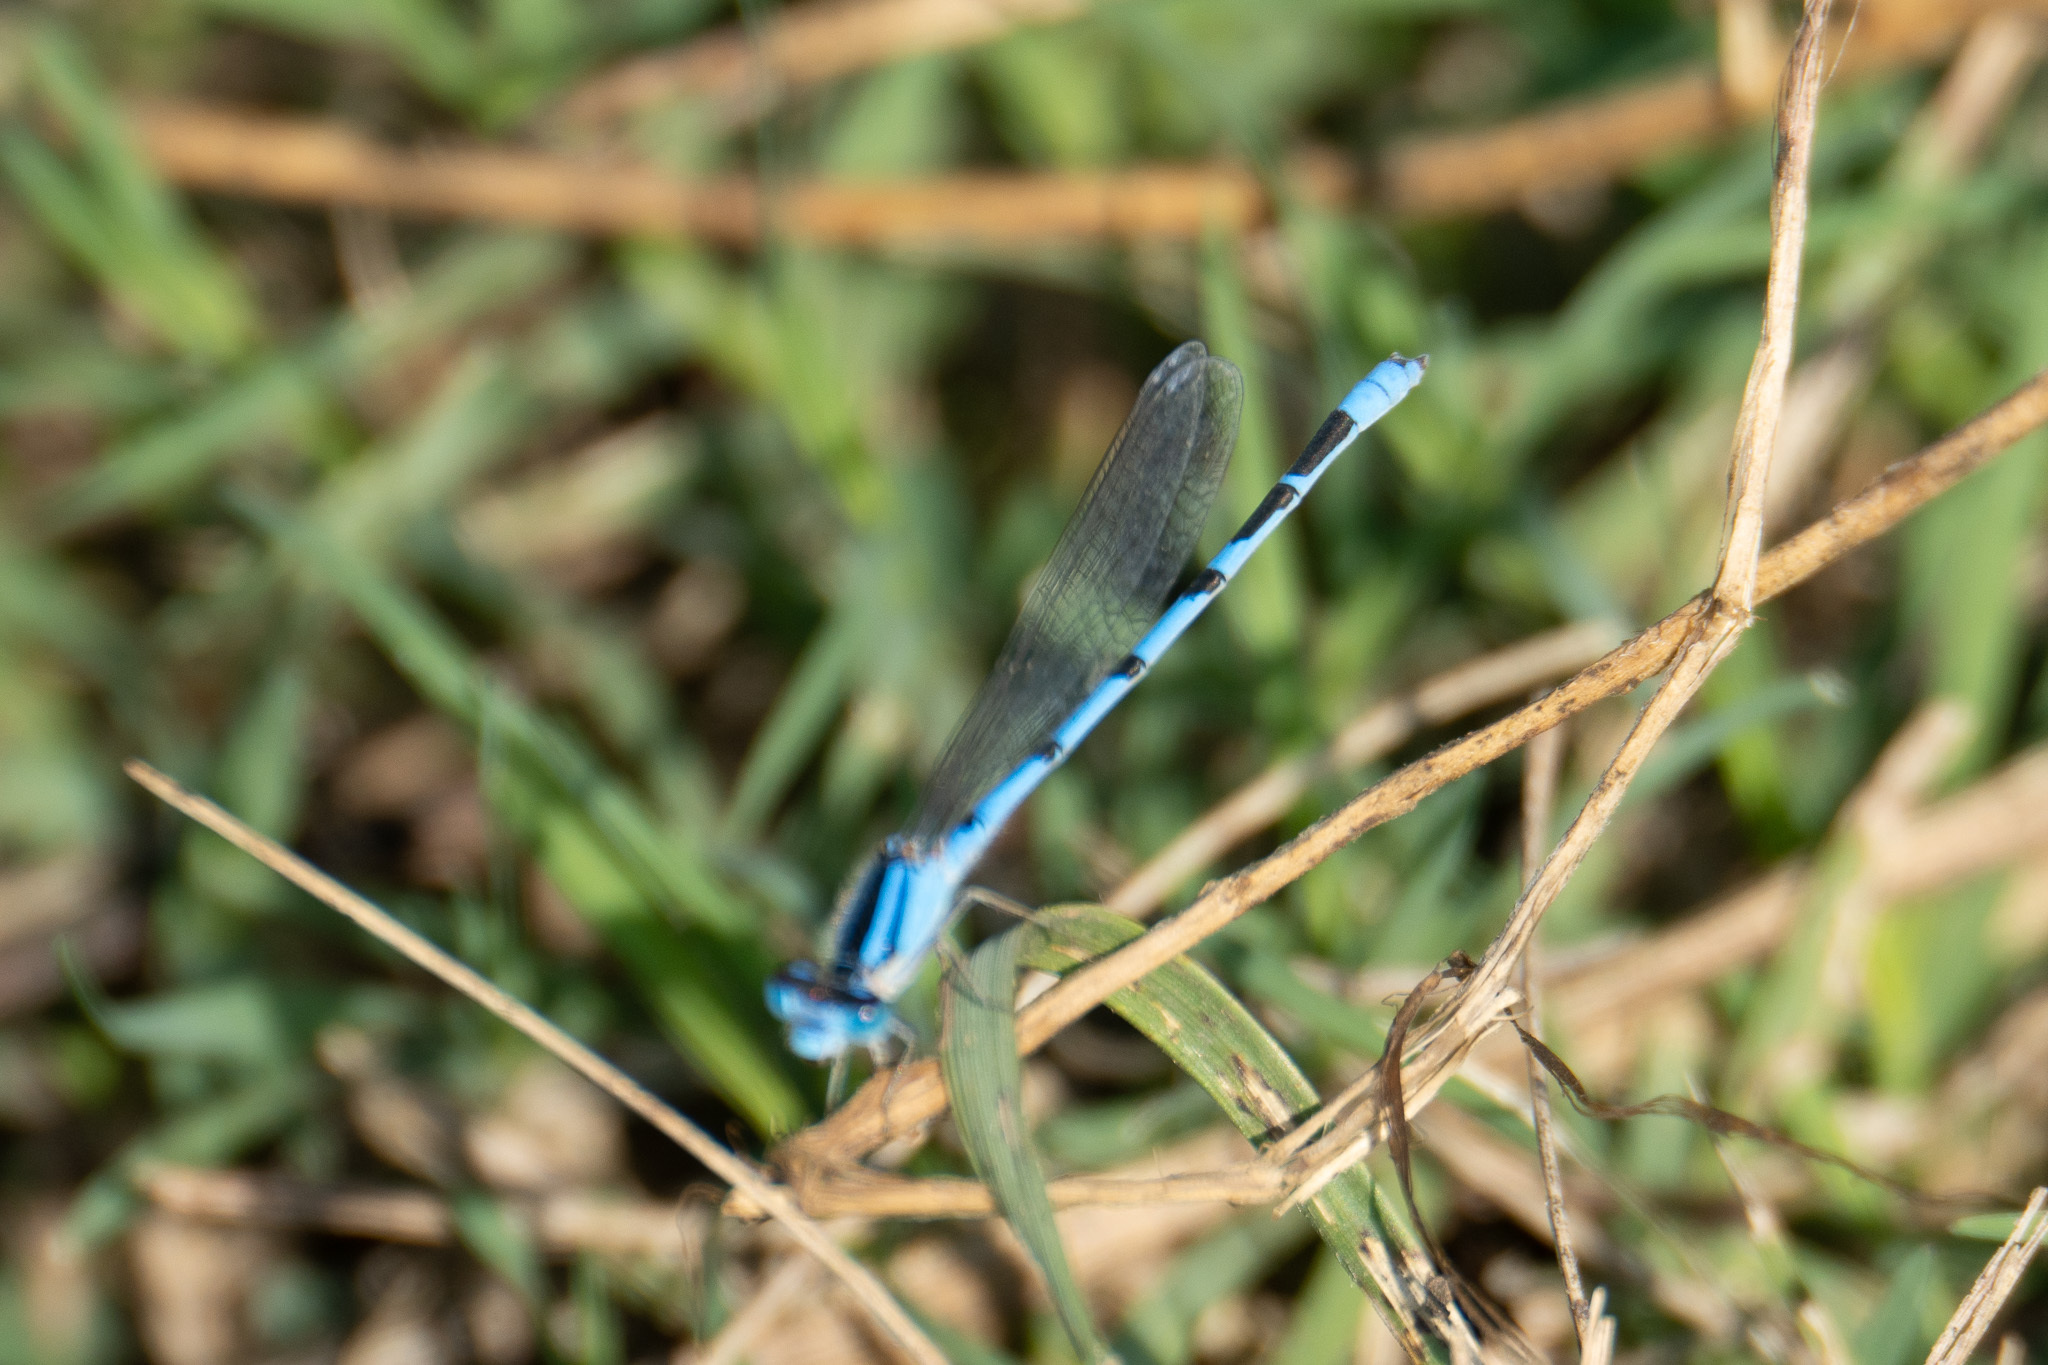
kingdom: Animalia
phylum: Arthropoda
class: Insecta
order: Odonata
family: Coenagrionidae
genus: Enallagma
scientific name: Enallagma civile
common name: Damselfly
